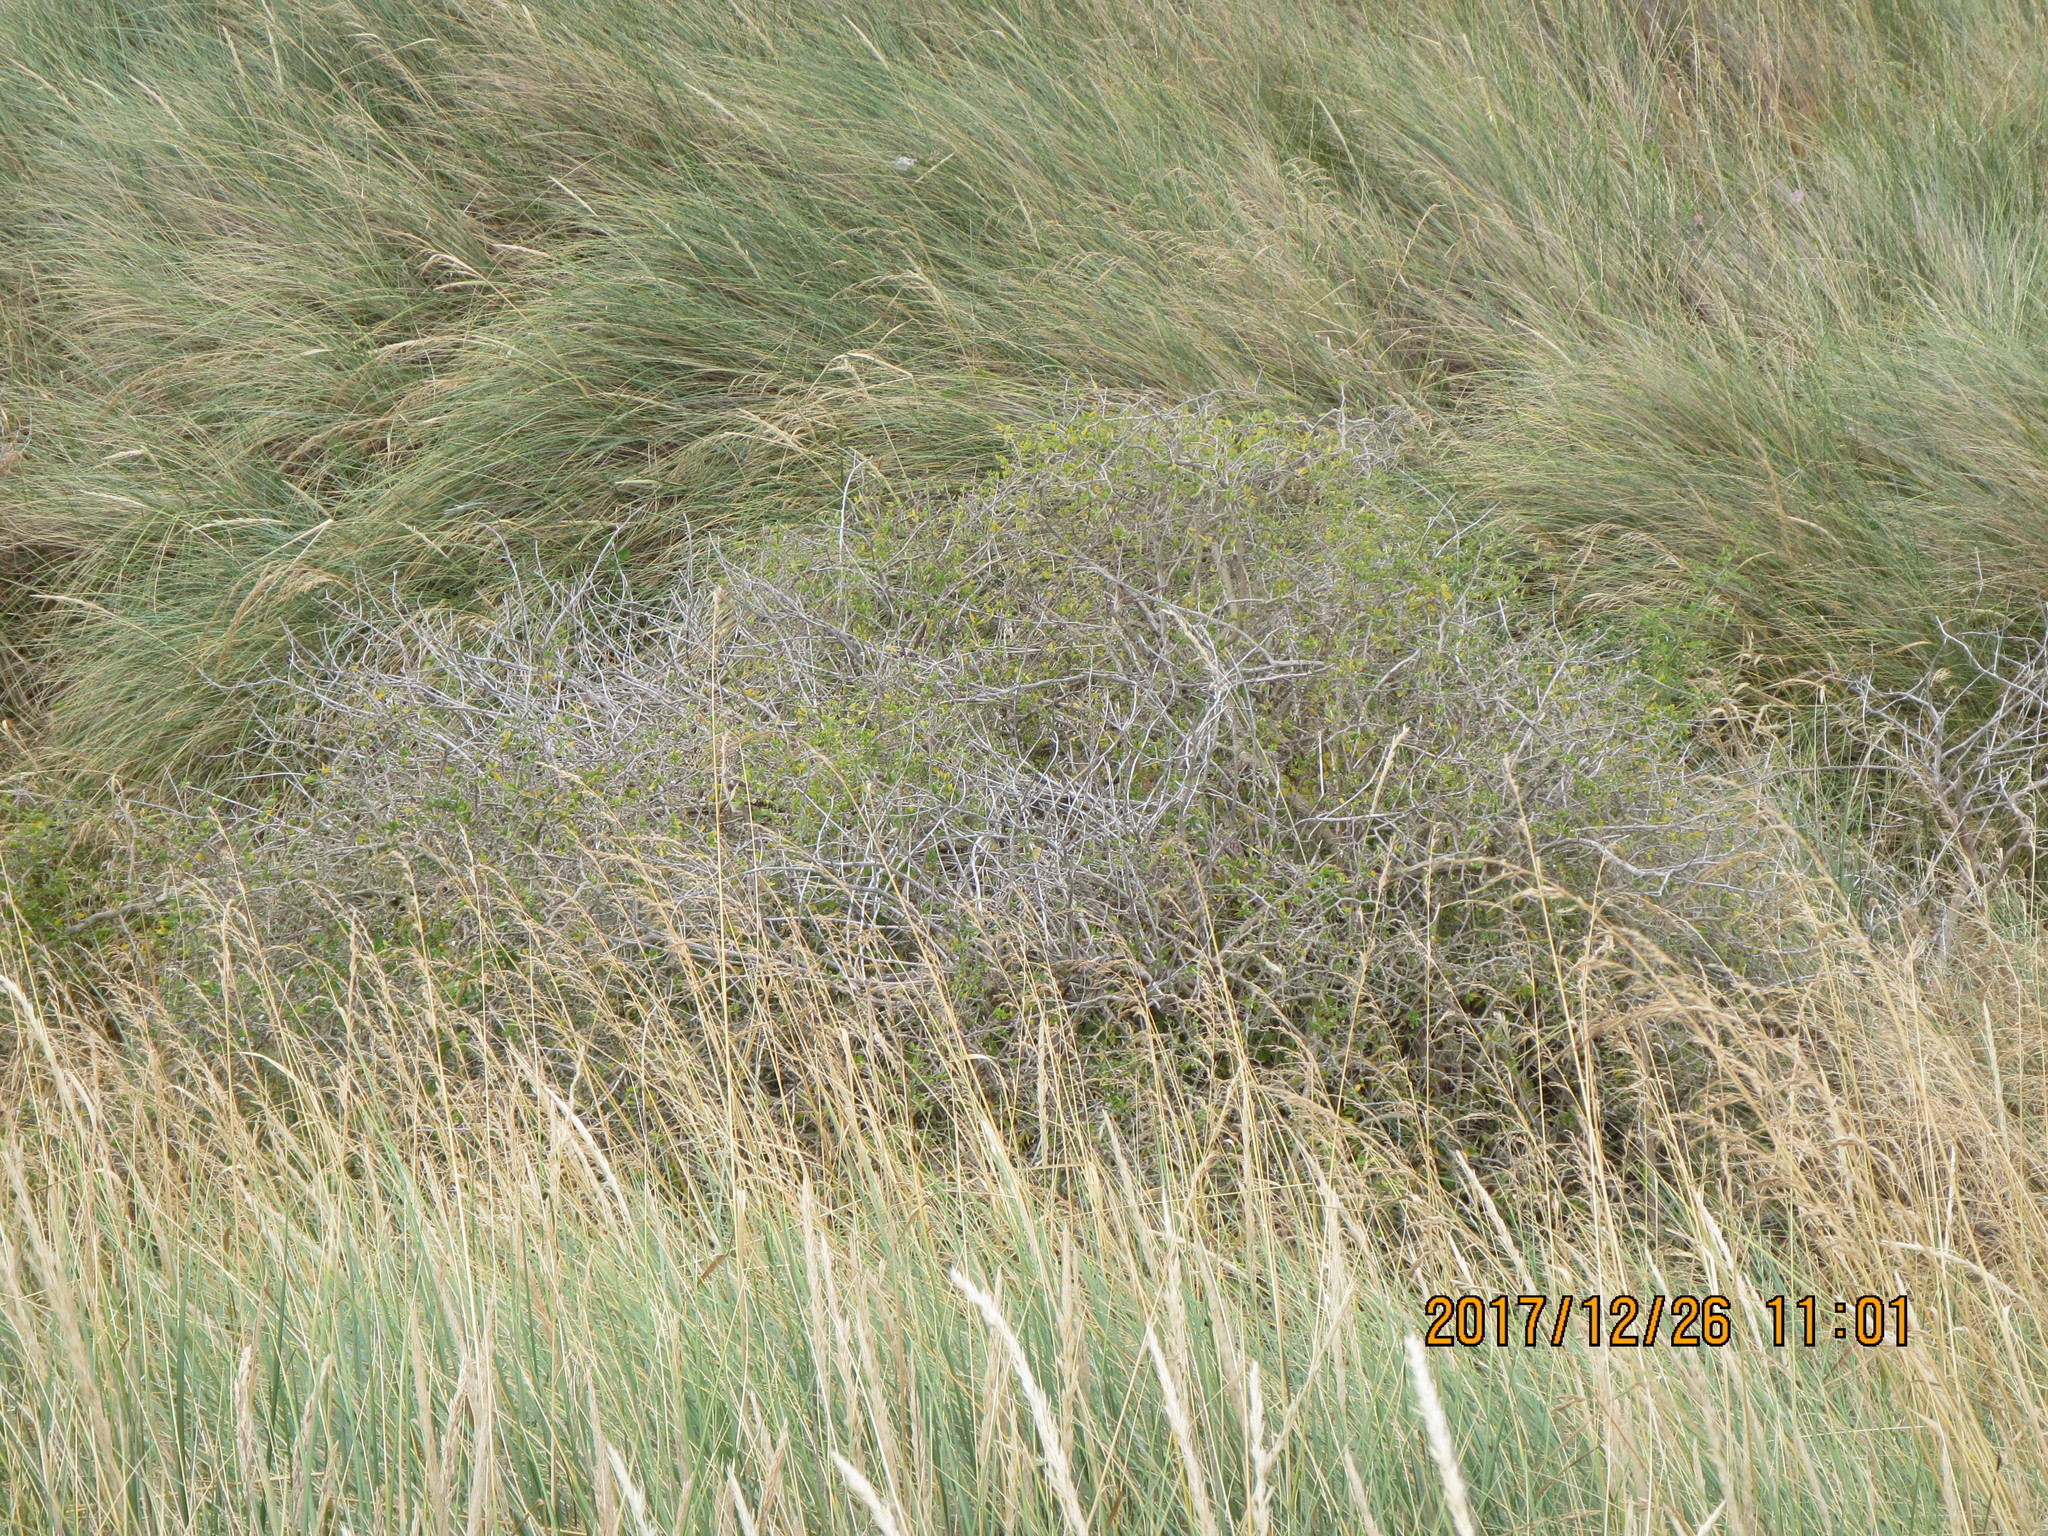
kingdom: Plantae
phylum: Tracheophyta
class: Magnoliopsida
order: Solanales
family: Solanaceae
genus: Lycium
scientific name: Lycium ferocissimum
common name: African boxthorn
